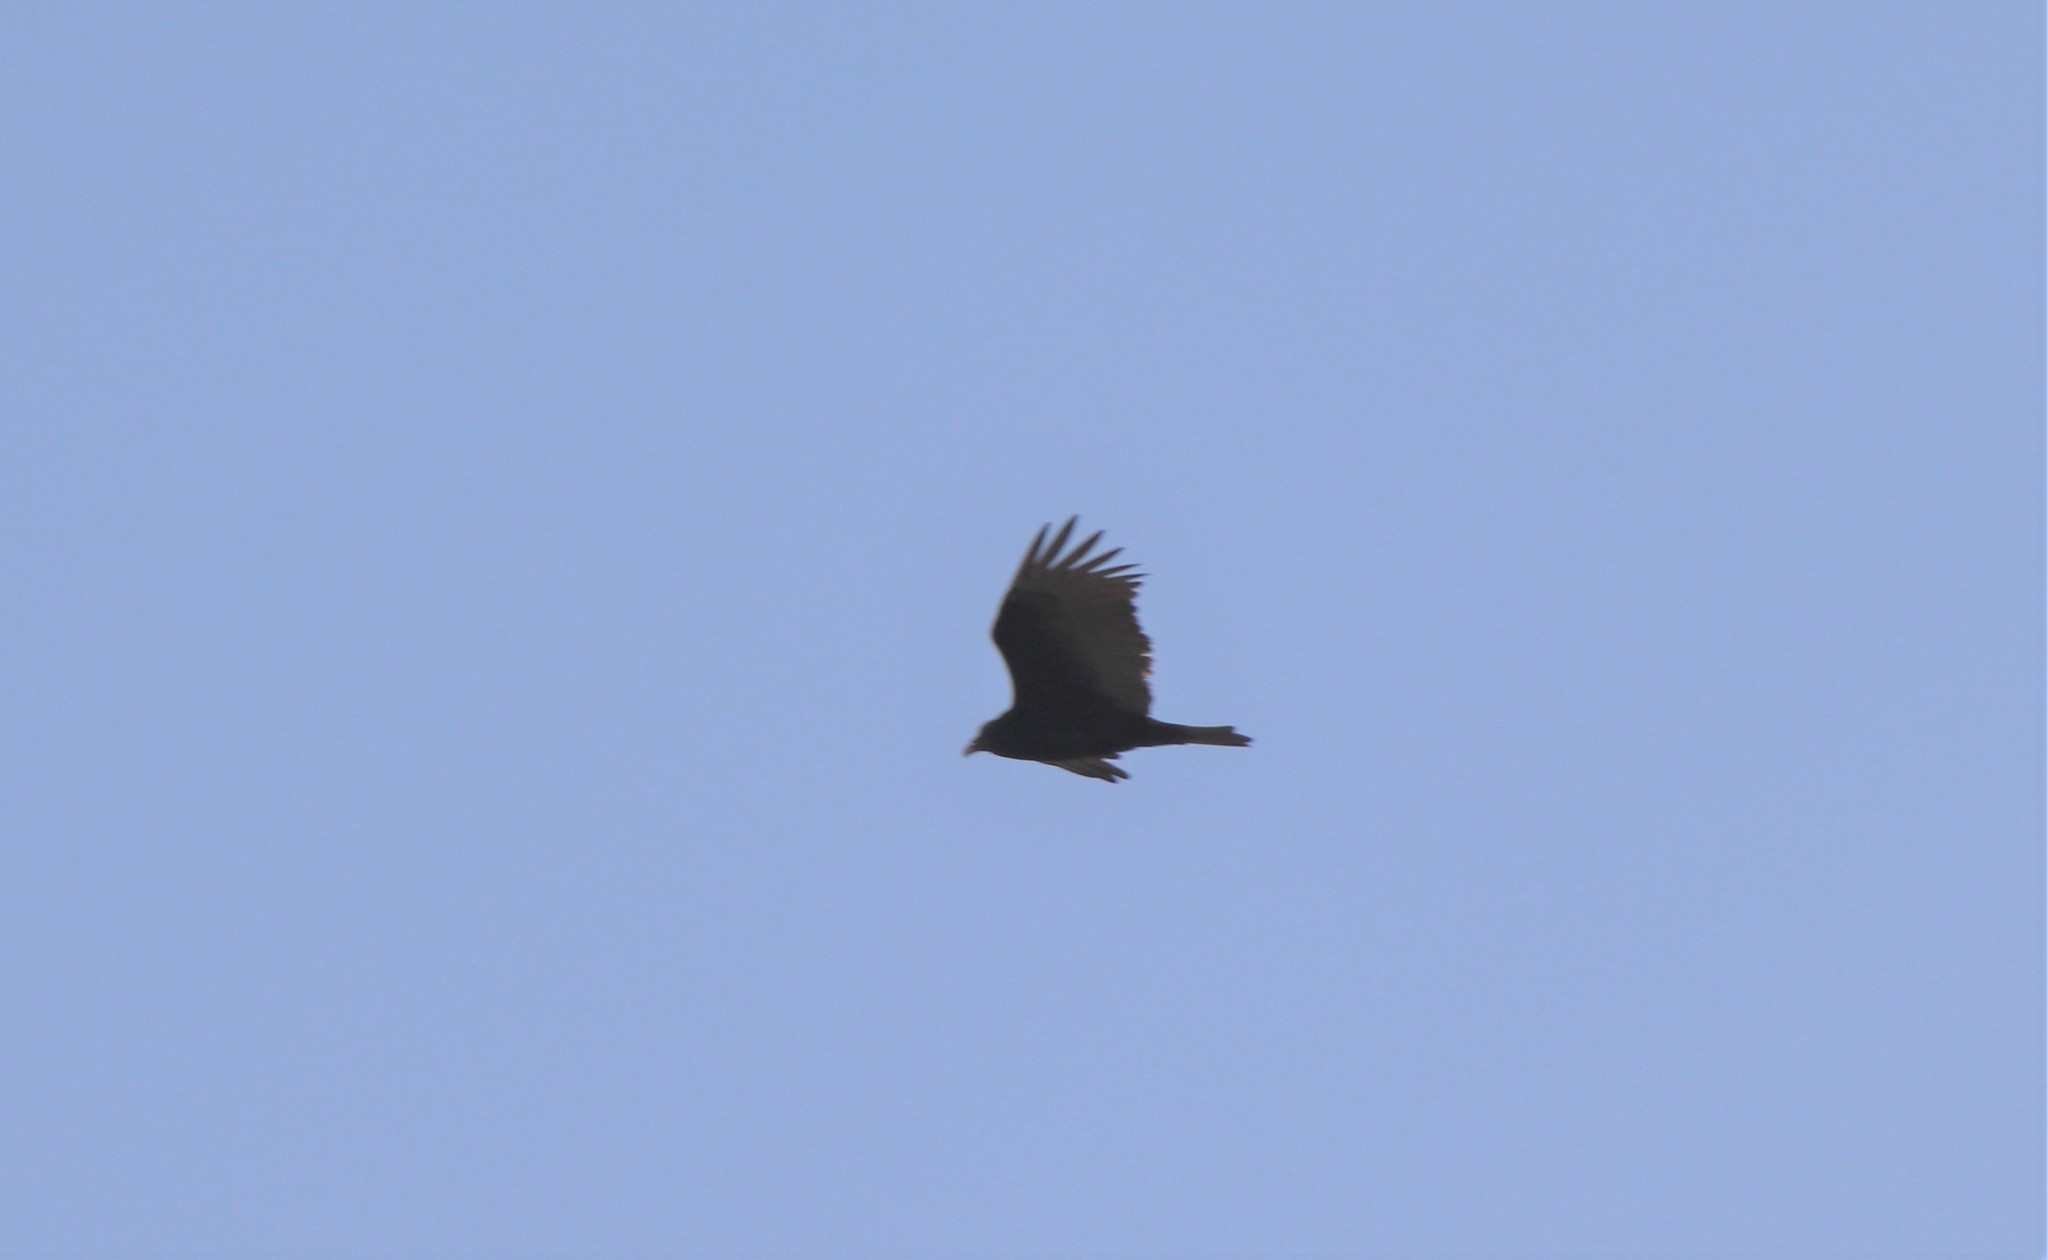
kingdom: Animalia
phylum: Chordata
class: Aves
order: Accipitriformes
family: Cathartidae
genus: Cathartes
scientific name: Cathartes aura
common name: Turkey vulture
